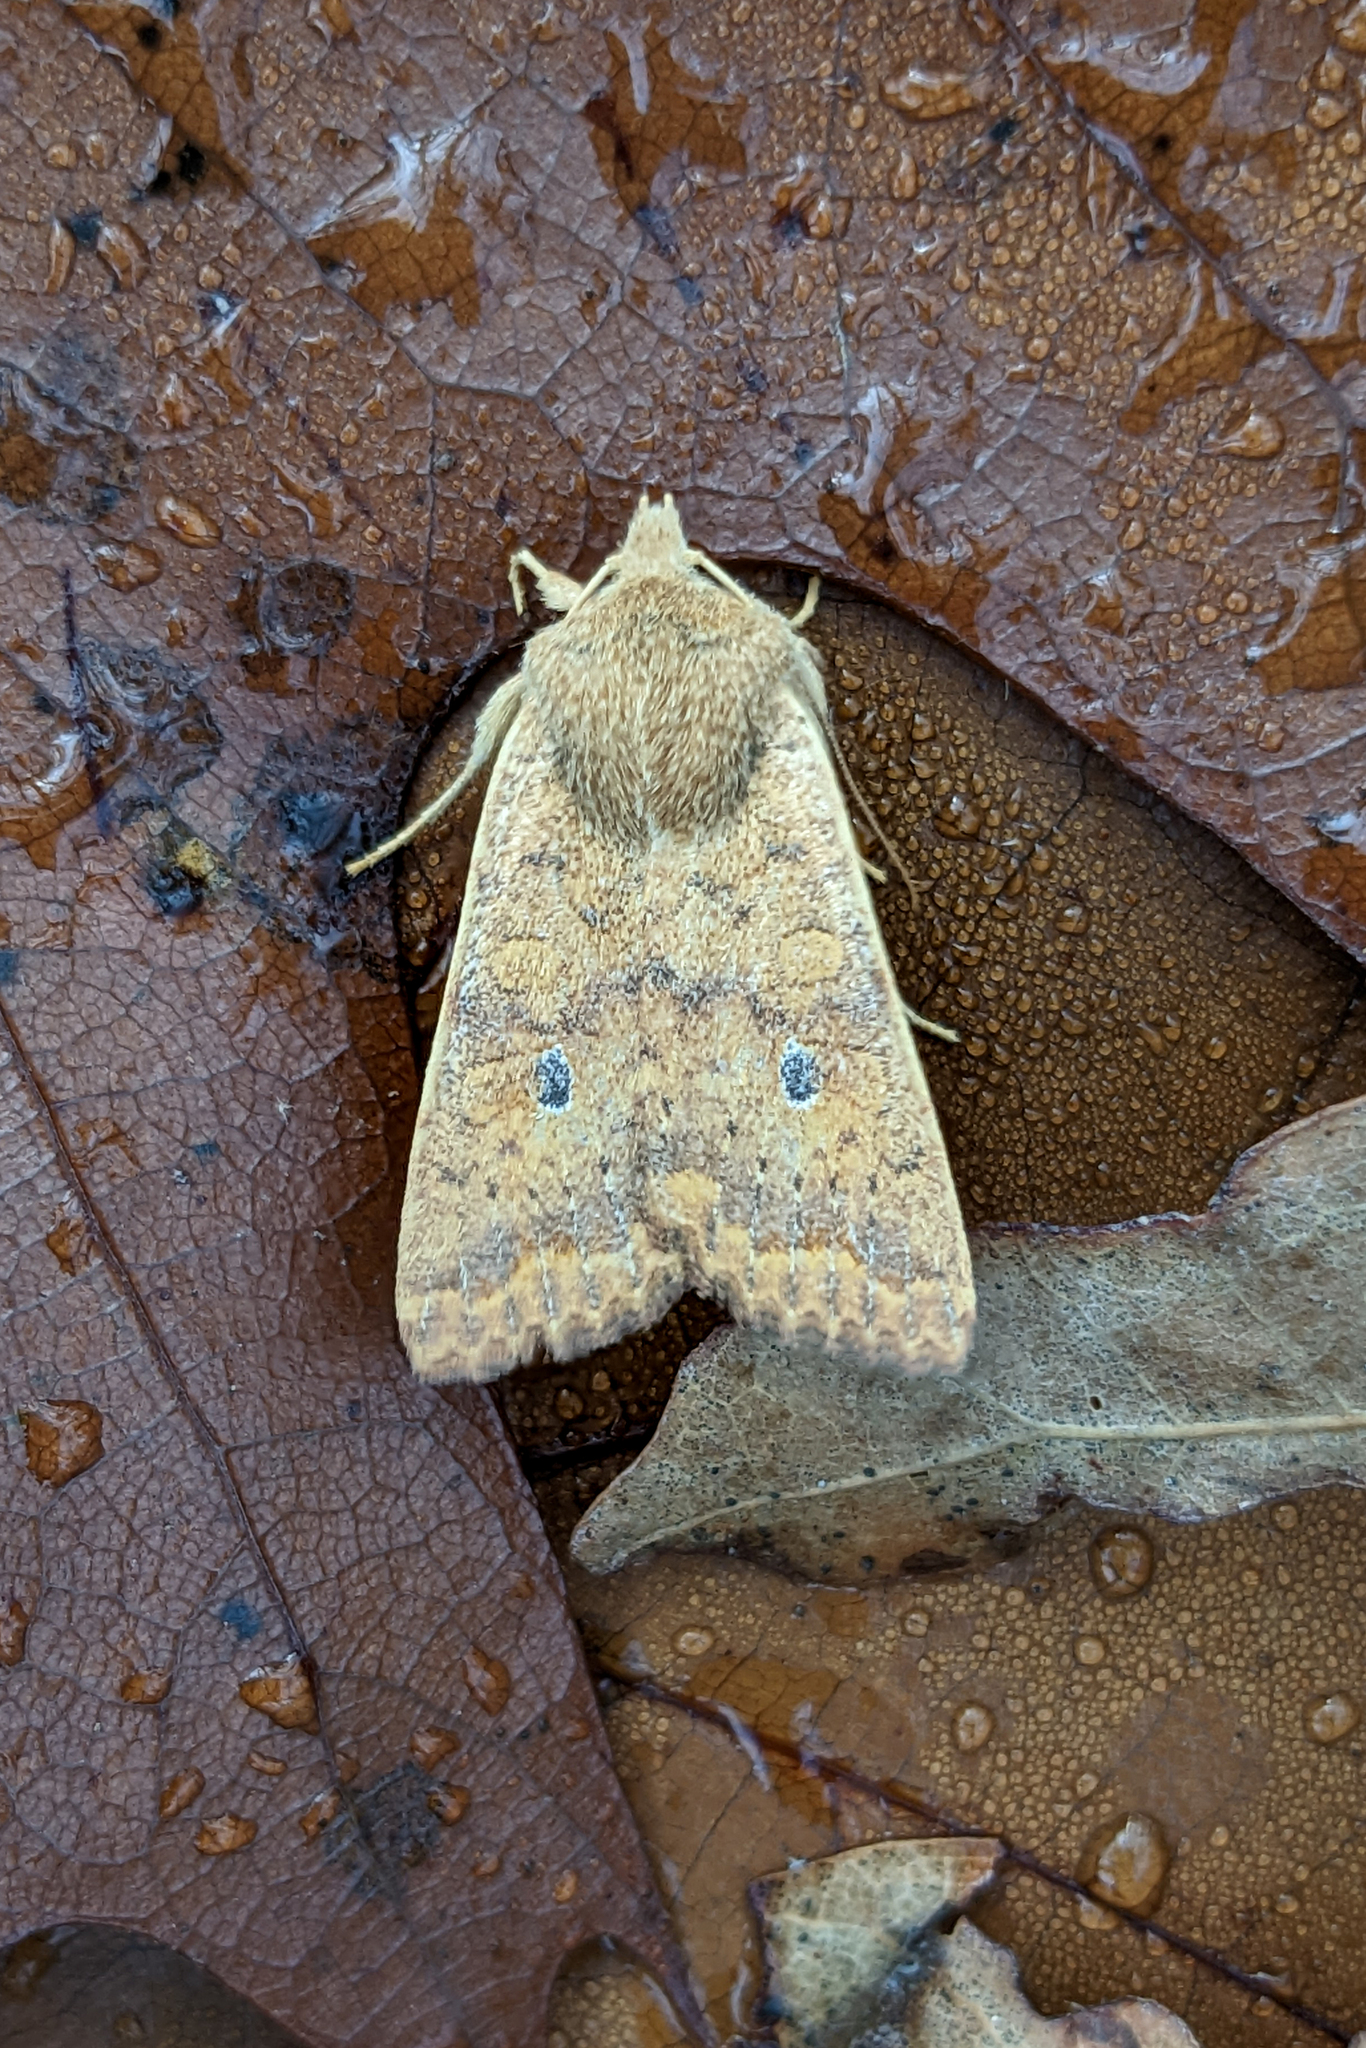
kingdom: Animalia
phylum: Arthropoda
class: Insecta
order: Lepidoptera
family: Noctuidae
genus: Agrochola
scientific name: Agrochola bicolorago
